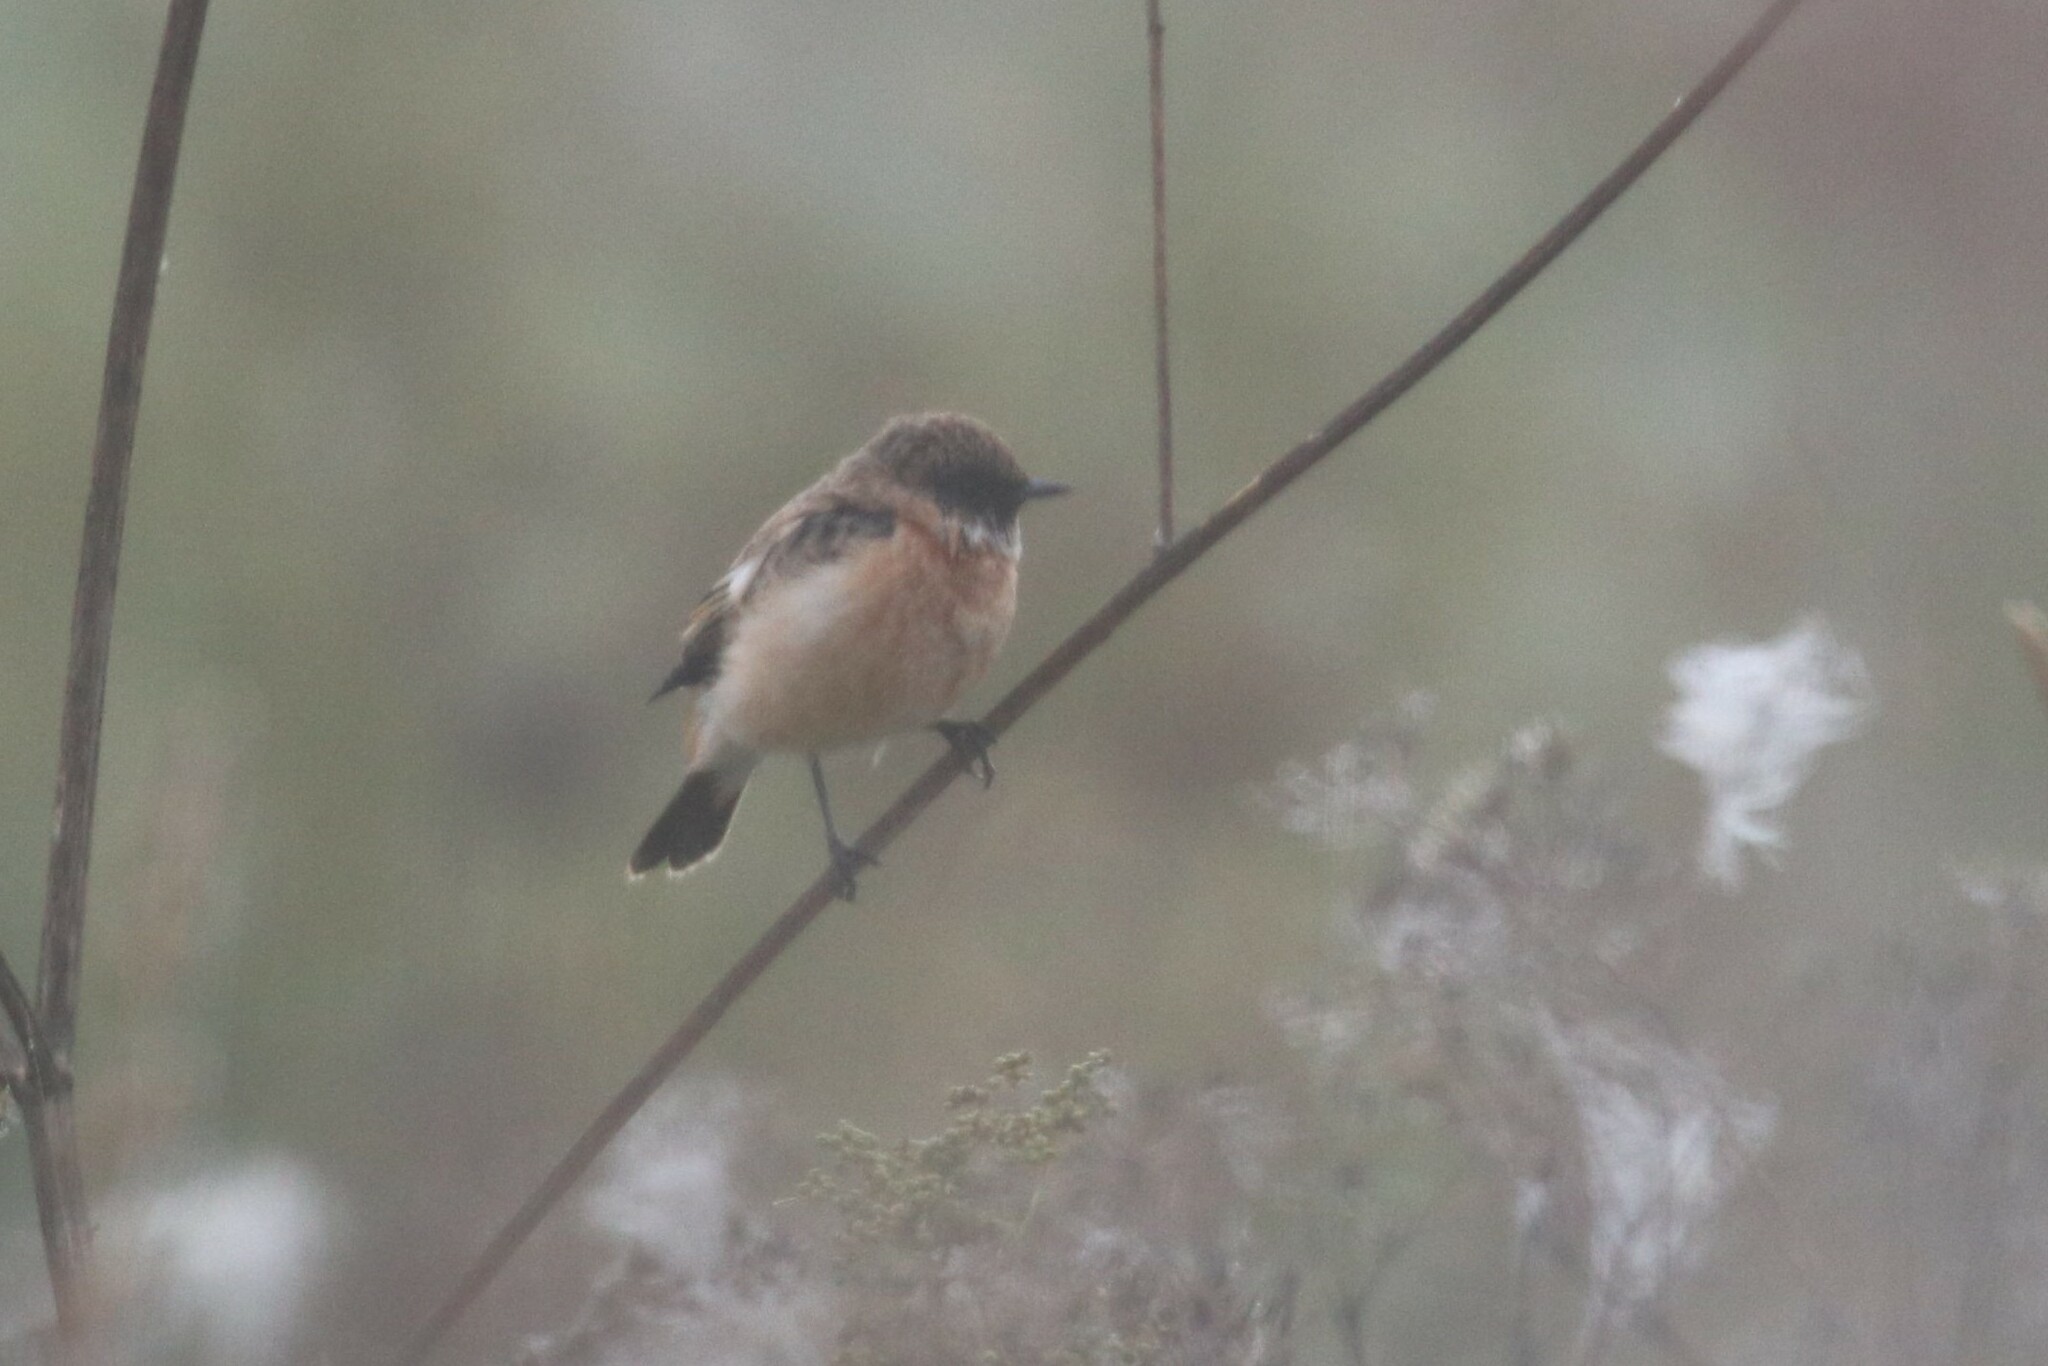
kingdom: Animalia
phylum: Chordata
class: Aves
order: Passeriformes
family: Muscicapidae
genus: Saxicola
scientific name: Saxicola maurus
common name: Siberian stonechat
